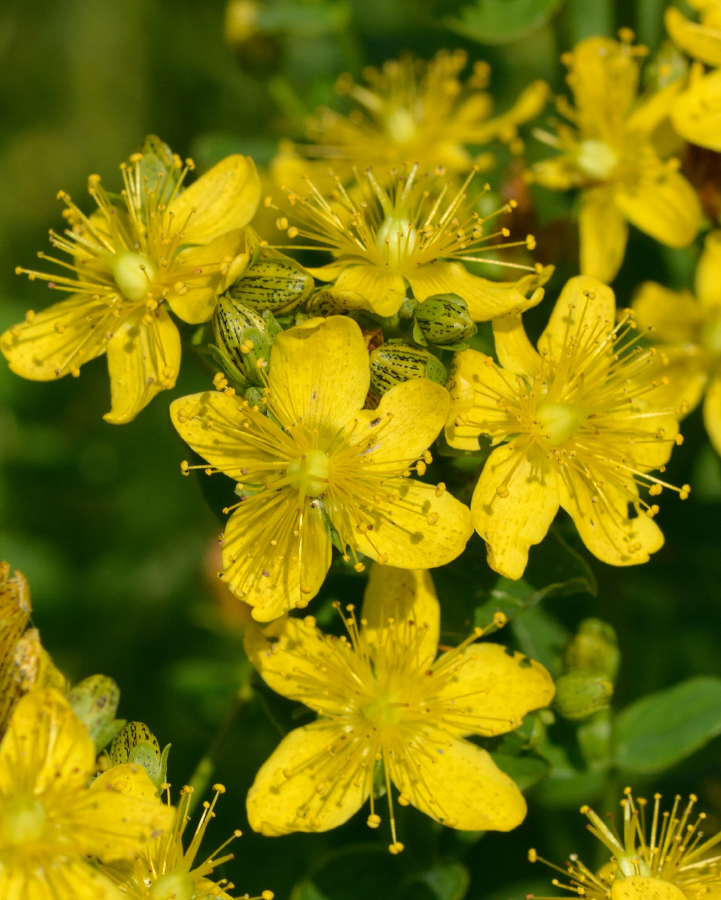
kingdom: Plantae
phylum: Tracheophyta
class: Magnoliopsida
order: Malpighiales
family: Hypericaceae
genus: Hypericum
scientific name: Hypericum maculatum
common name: Imperforate st. john's-wort
